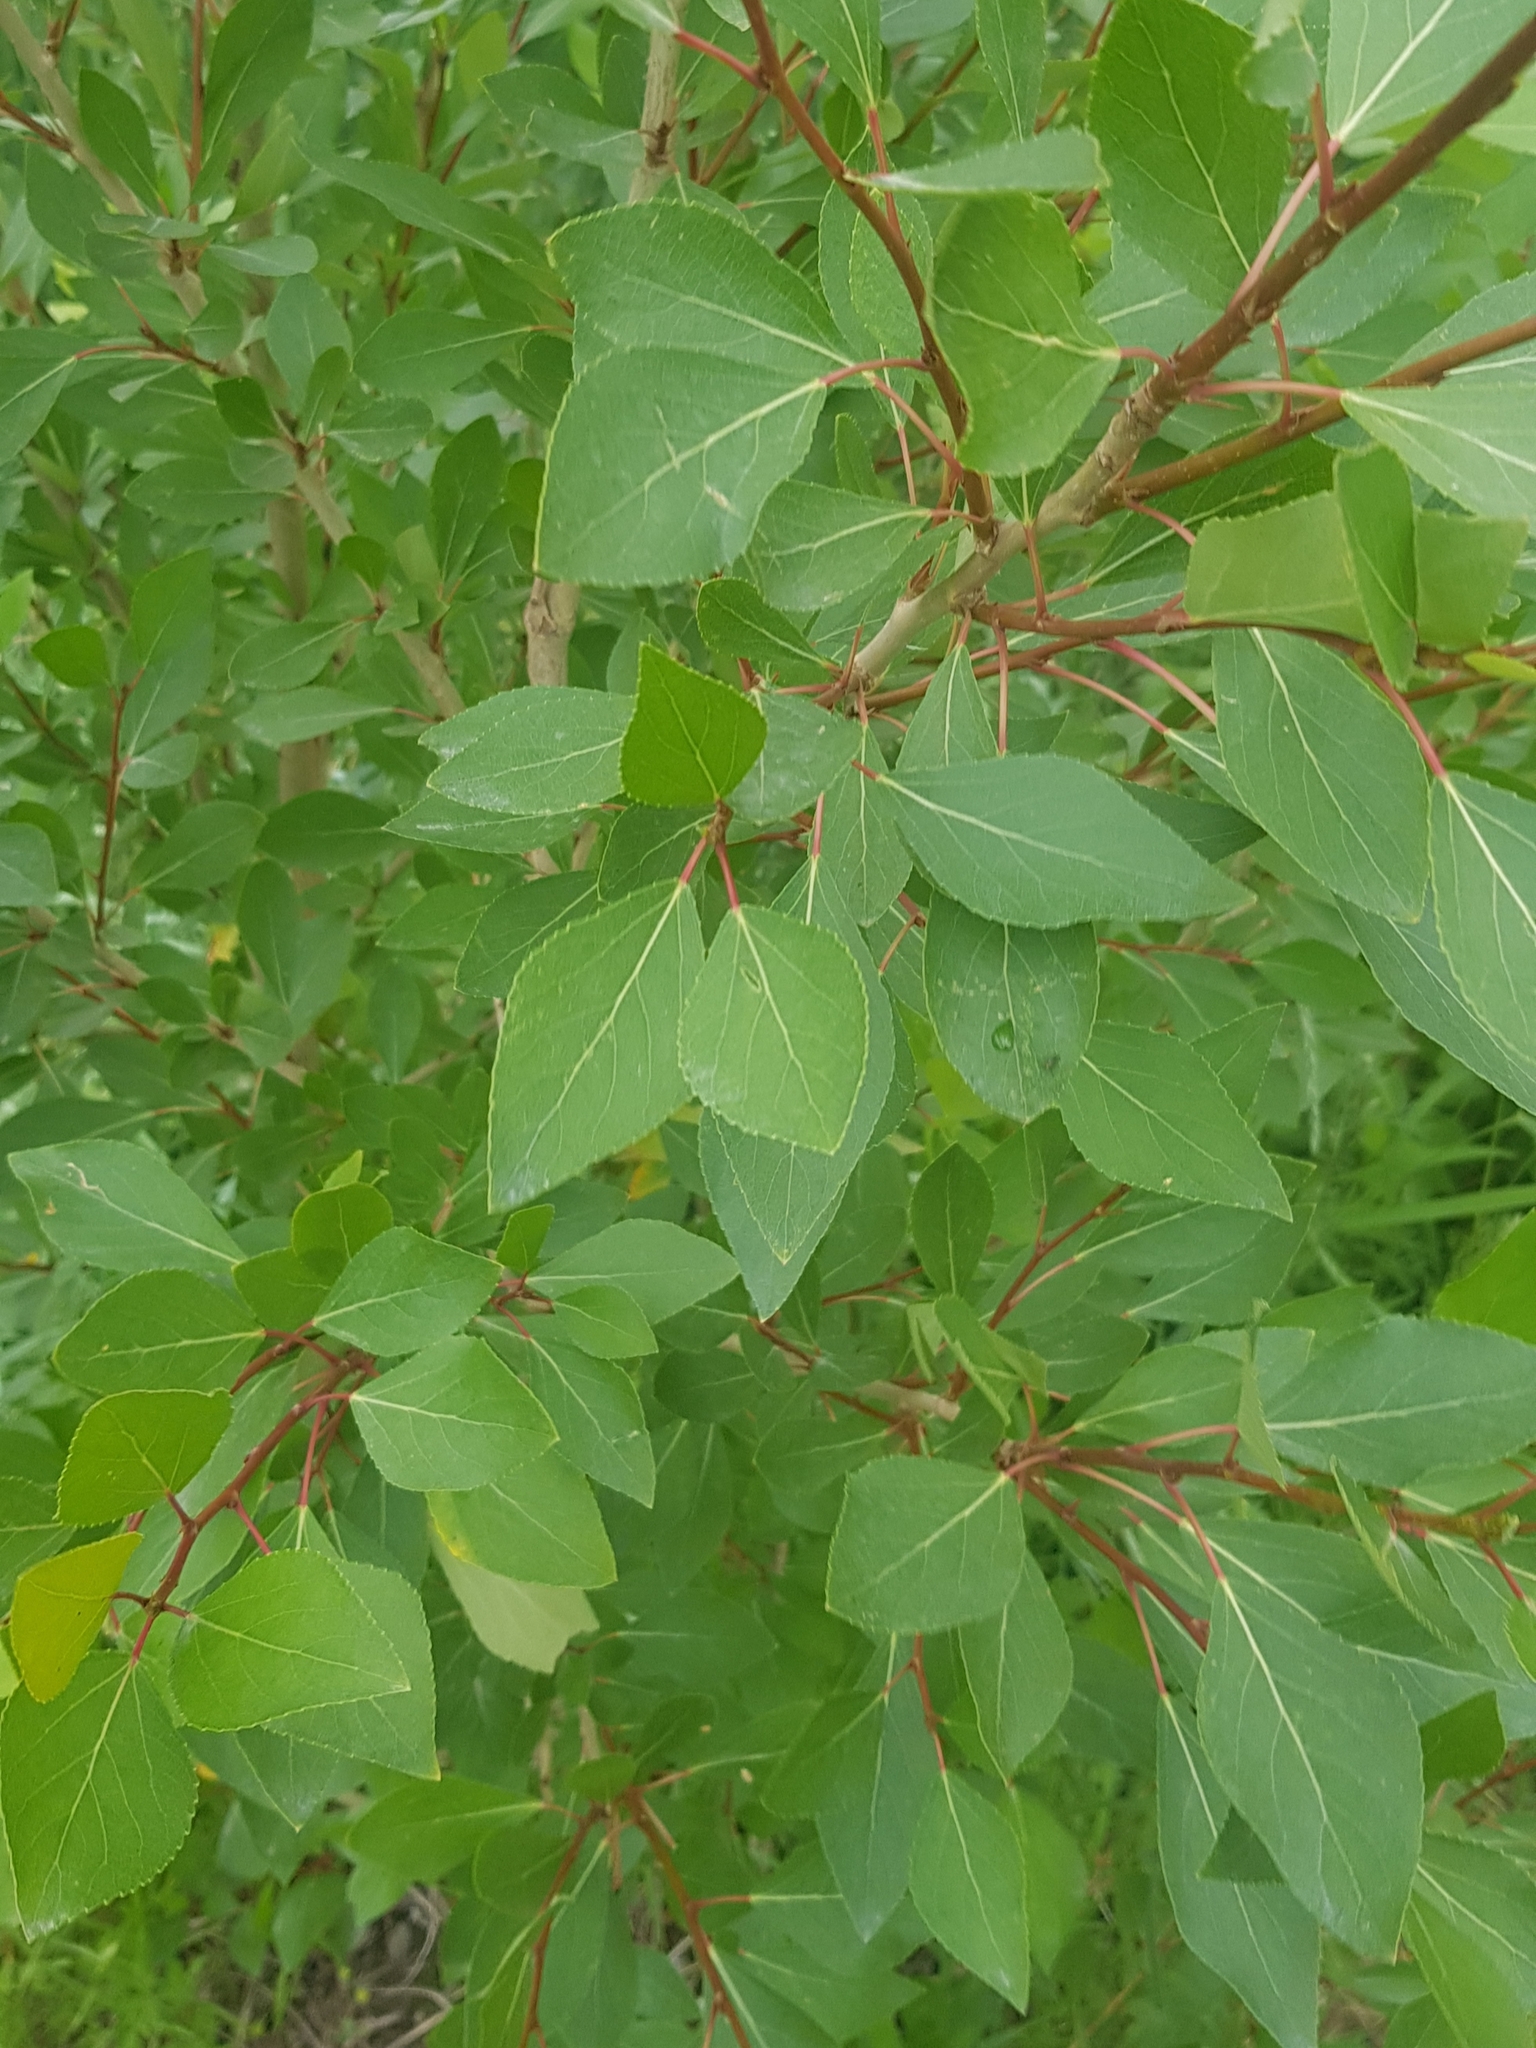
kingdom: Plantae
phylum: Tracheophyta
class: Magnoliopsida
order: Malpighiales
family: Salicaceae
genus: Populus
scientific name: Populus laurifolia
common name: Laurel-leaf poplar
